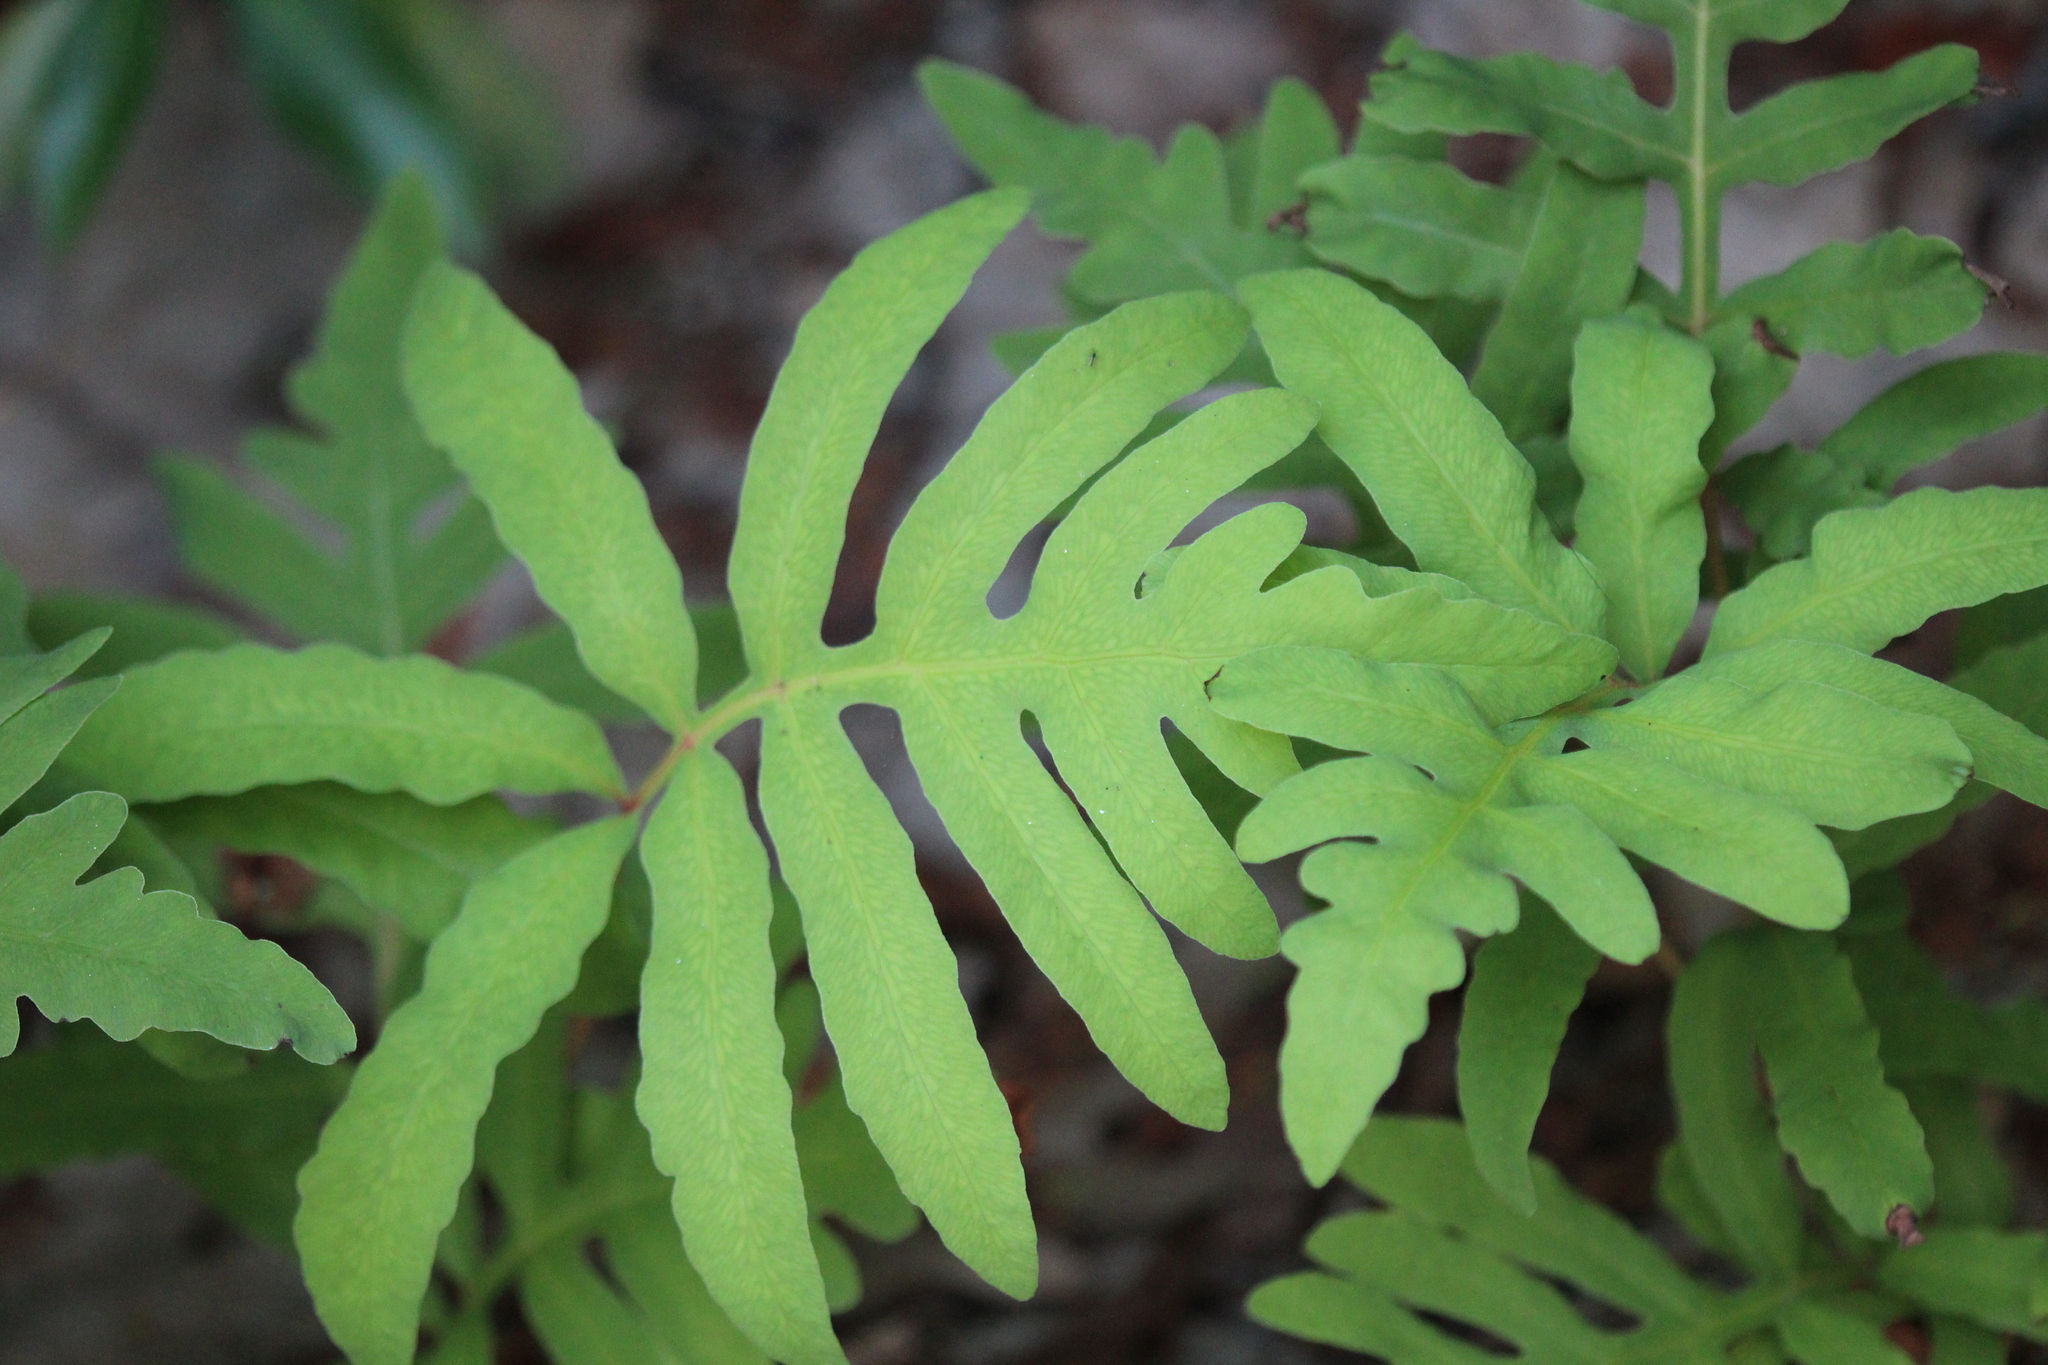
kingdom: Plantae
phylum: Tracheophyta
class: Polypodiopsida
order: Polypodiales
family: Onocleaceae
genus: Onoclea
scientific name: Onoclea sensibilis
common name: Sensitive fern
